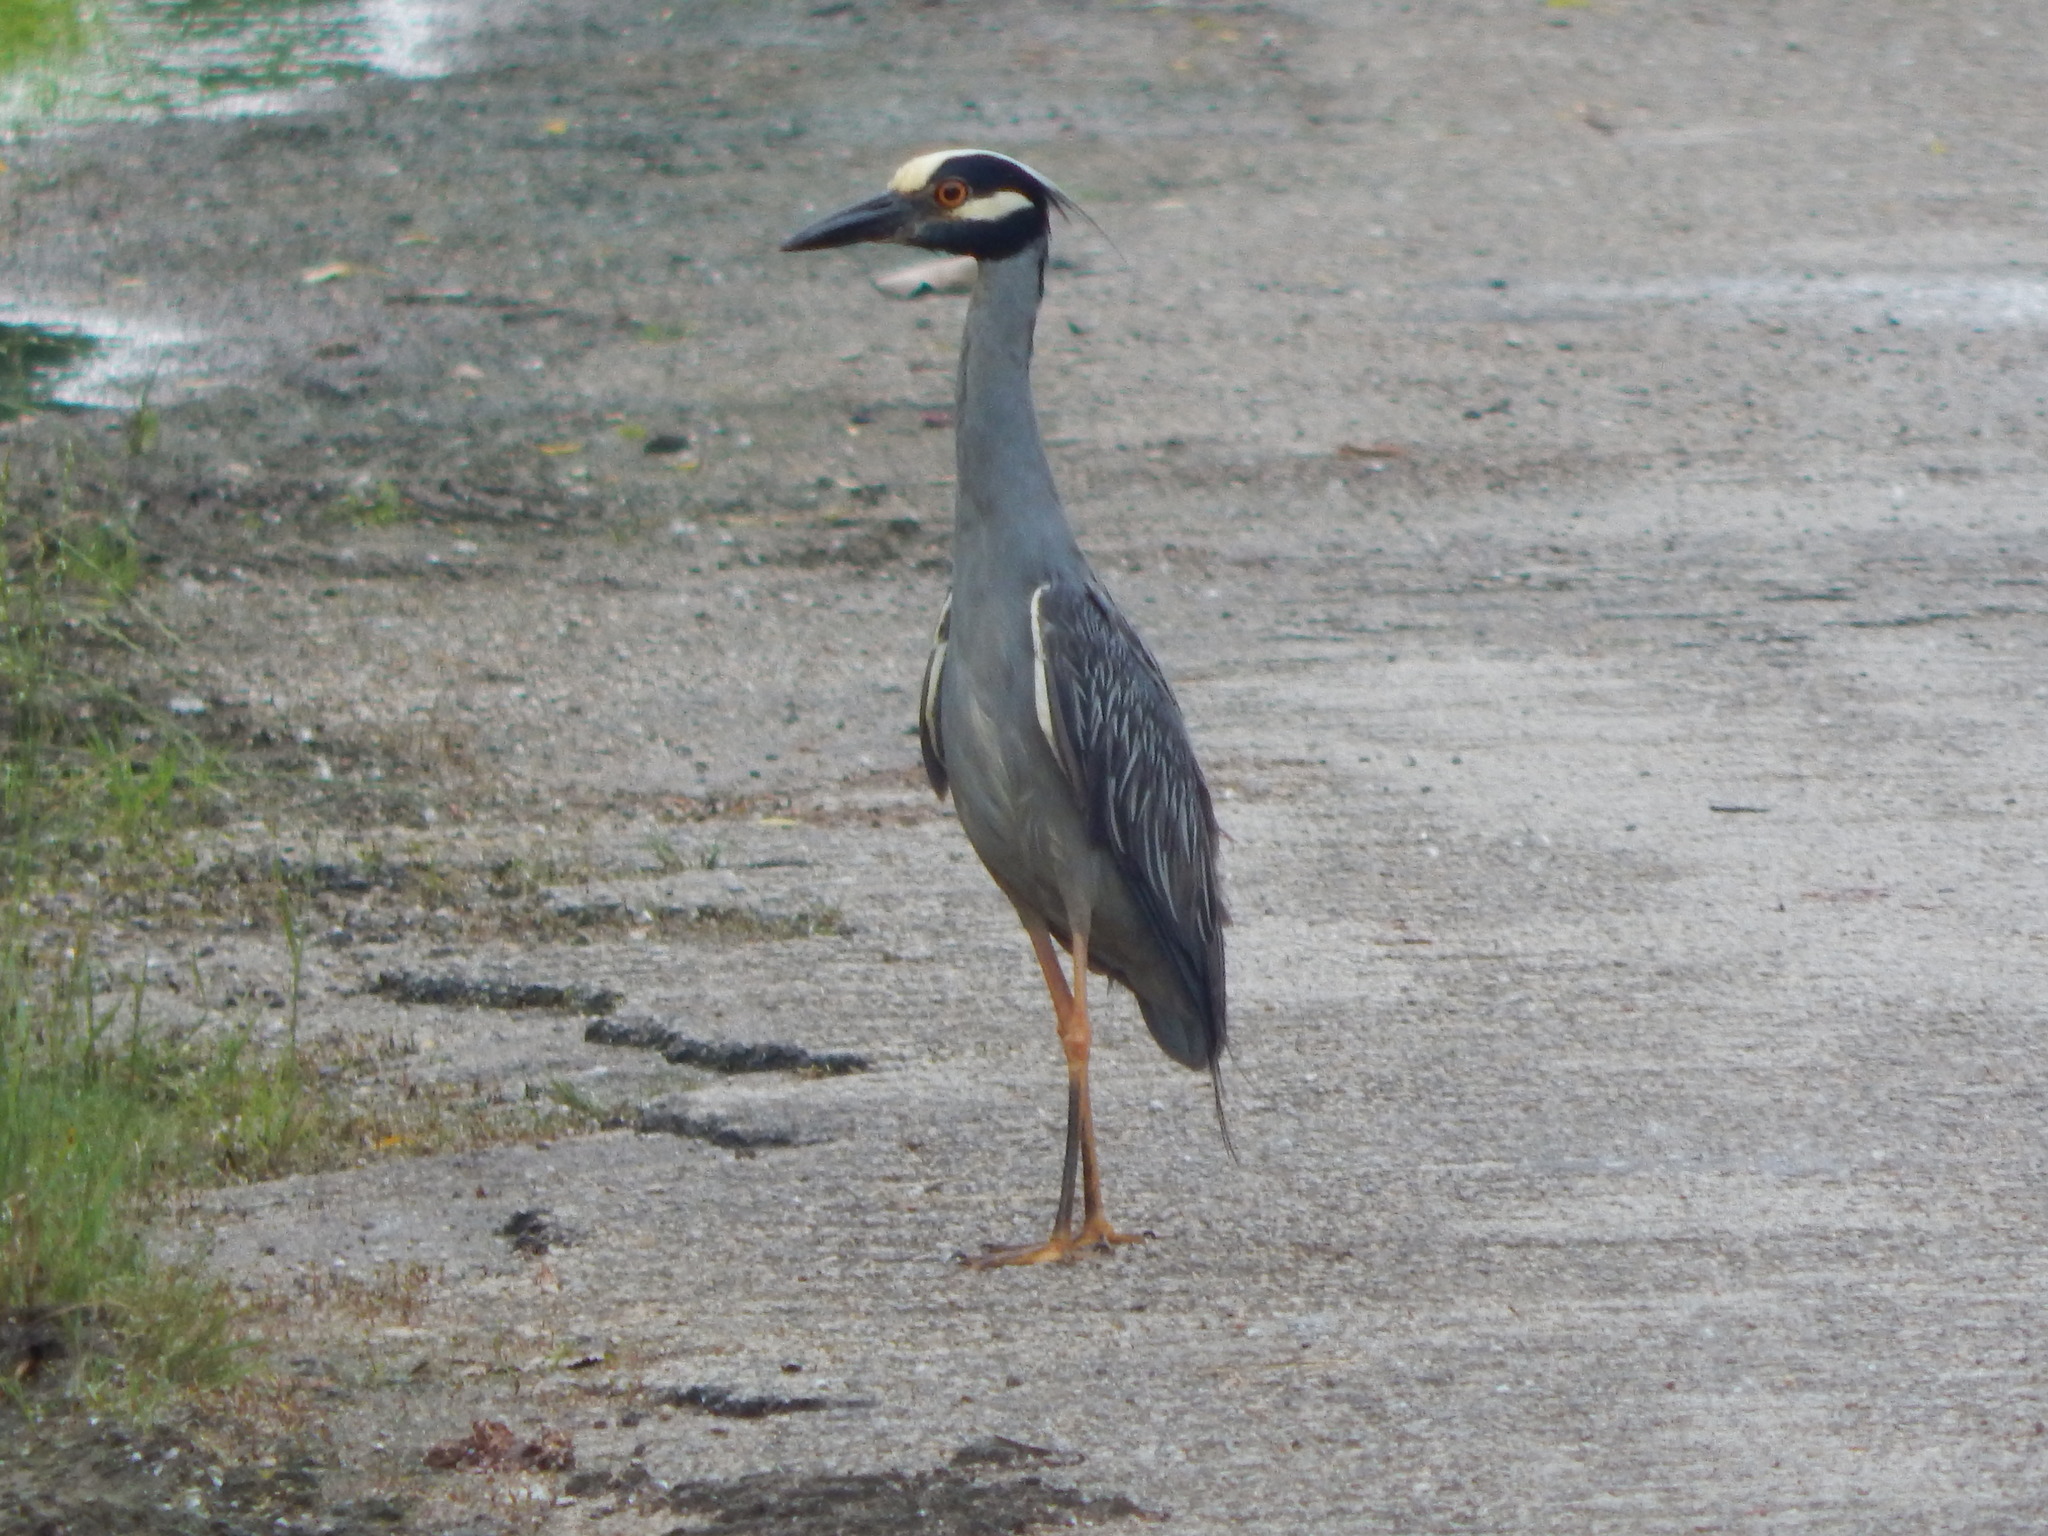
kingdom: Animalia
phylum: Chordata
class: Aves
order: Pelecaniformes
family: Ardeidae
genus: Nyctanassa
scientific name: Nyctanassa violacea
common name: Yellow-crowned night heron
